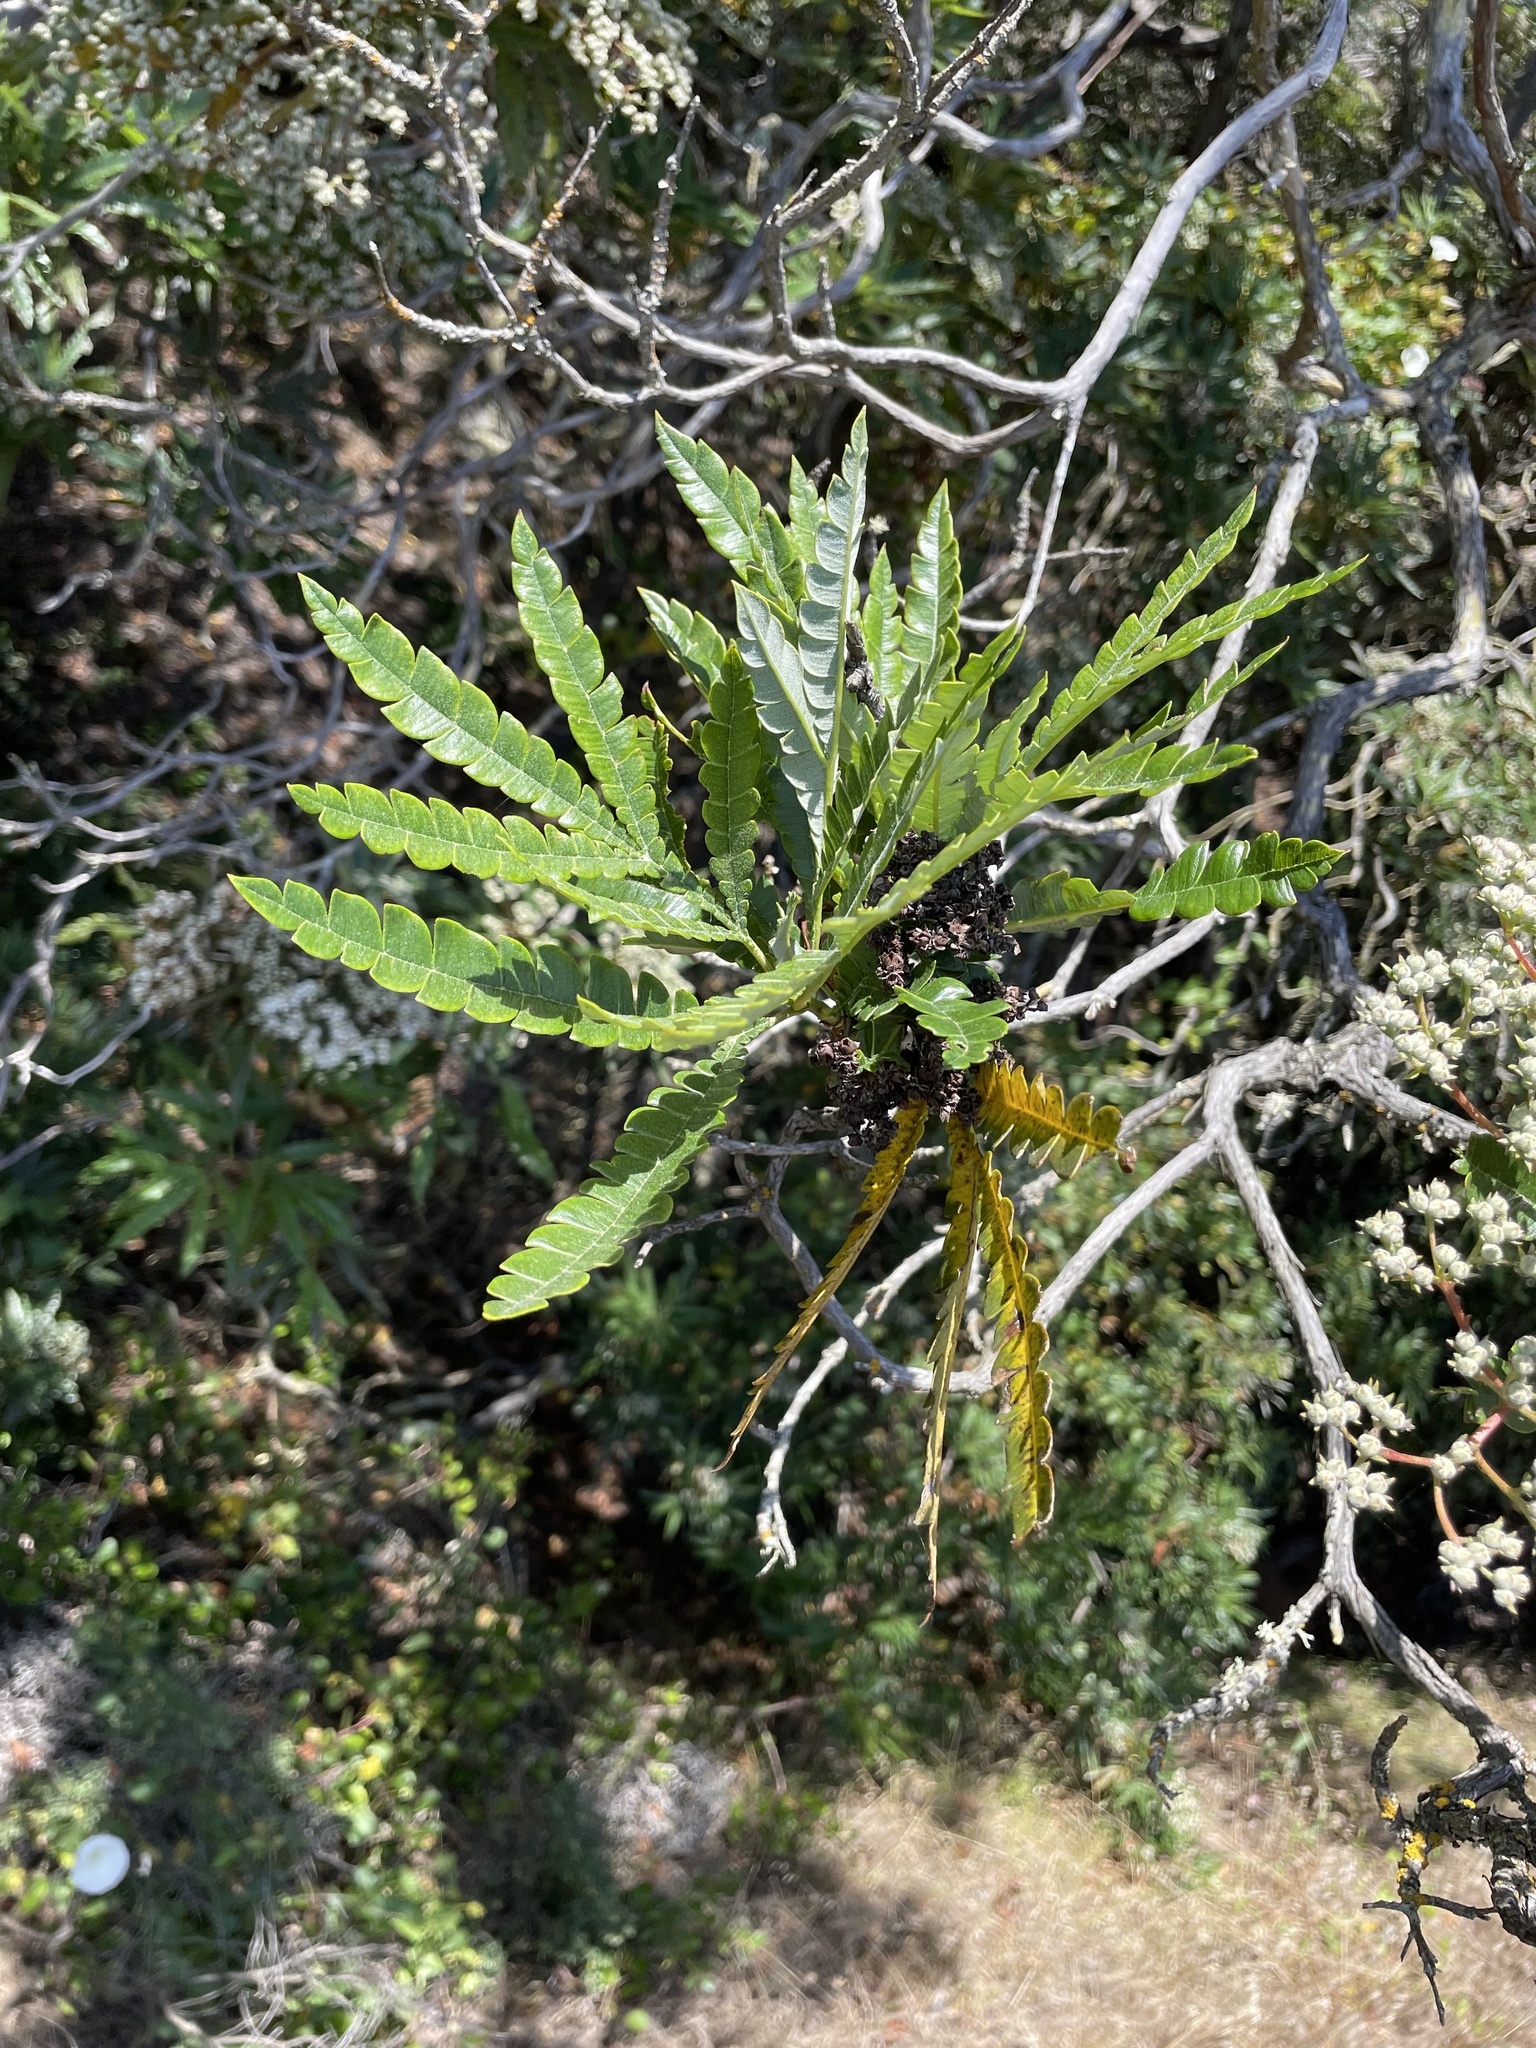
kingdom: Plantae
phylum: Tracheophyta
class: Magnoliopsida
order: Rosales
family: Rosaceae
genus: Lyonothamnus
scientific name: Lyonothamnus floribundus
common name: Catalina ironwood
